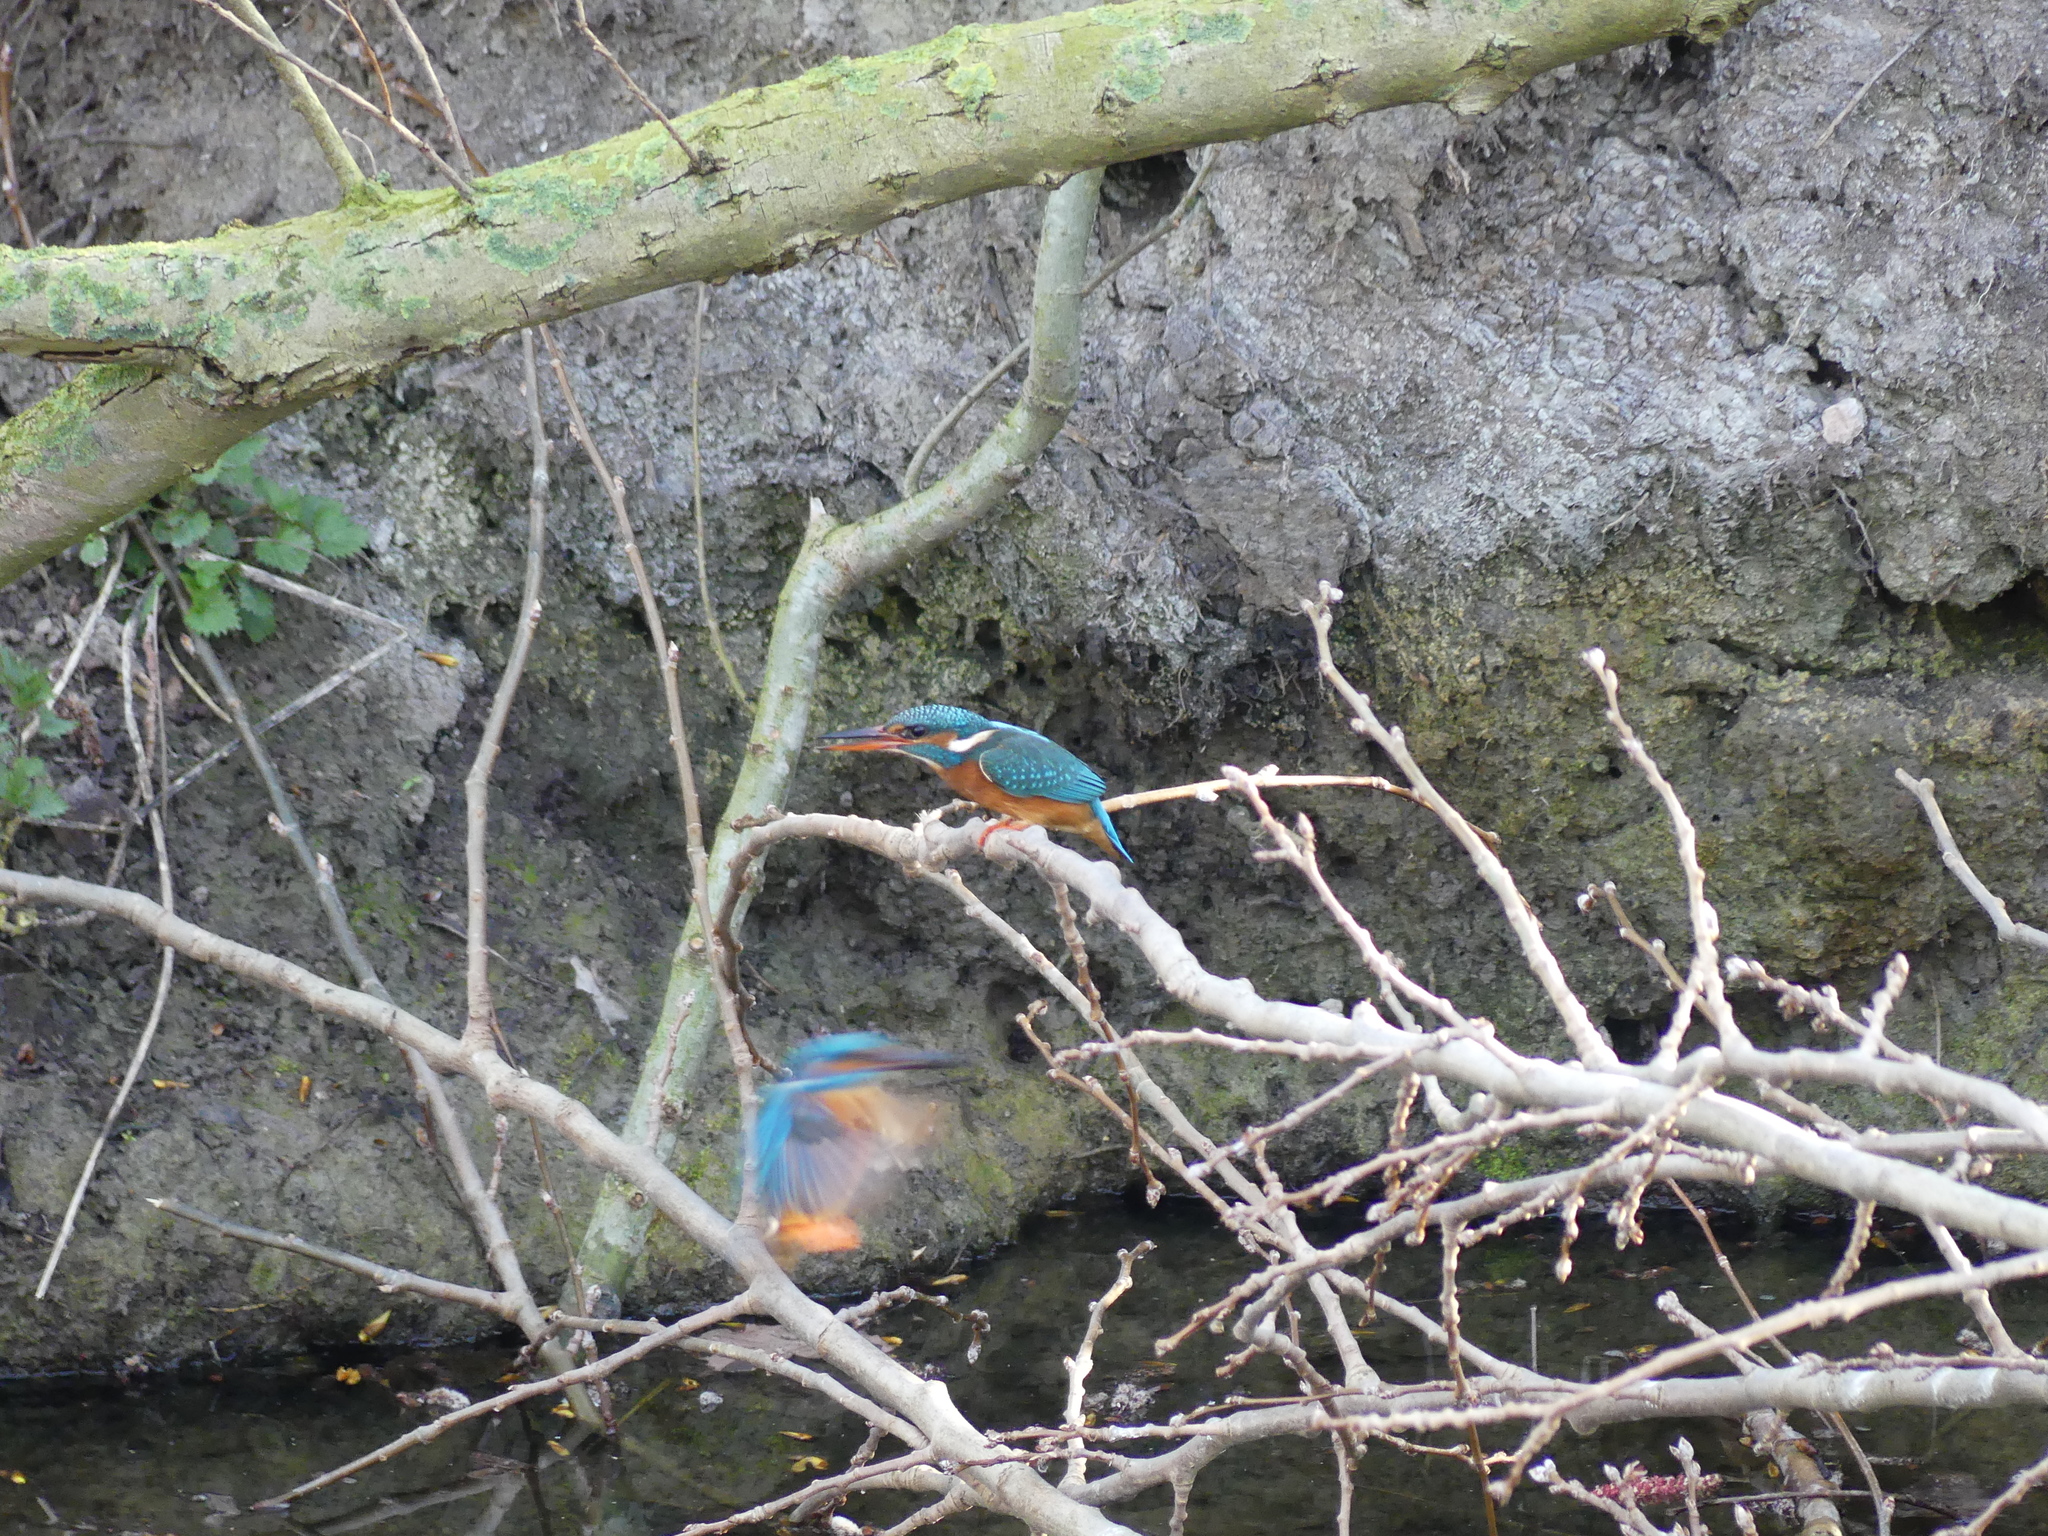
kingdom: Animalia
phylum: Chordata
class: Aves
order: Coraciiformes
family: Alcedinidae
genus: Alcedo
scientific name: Alcedo atthis
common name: Common kingfisher
